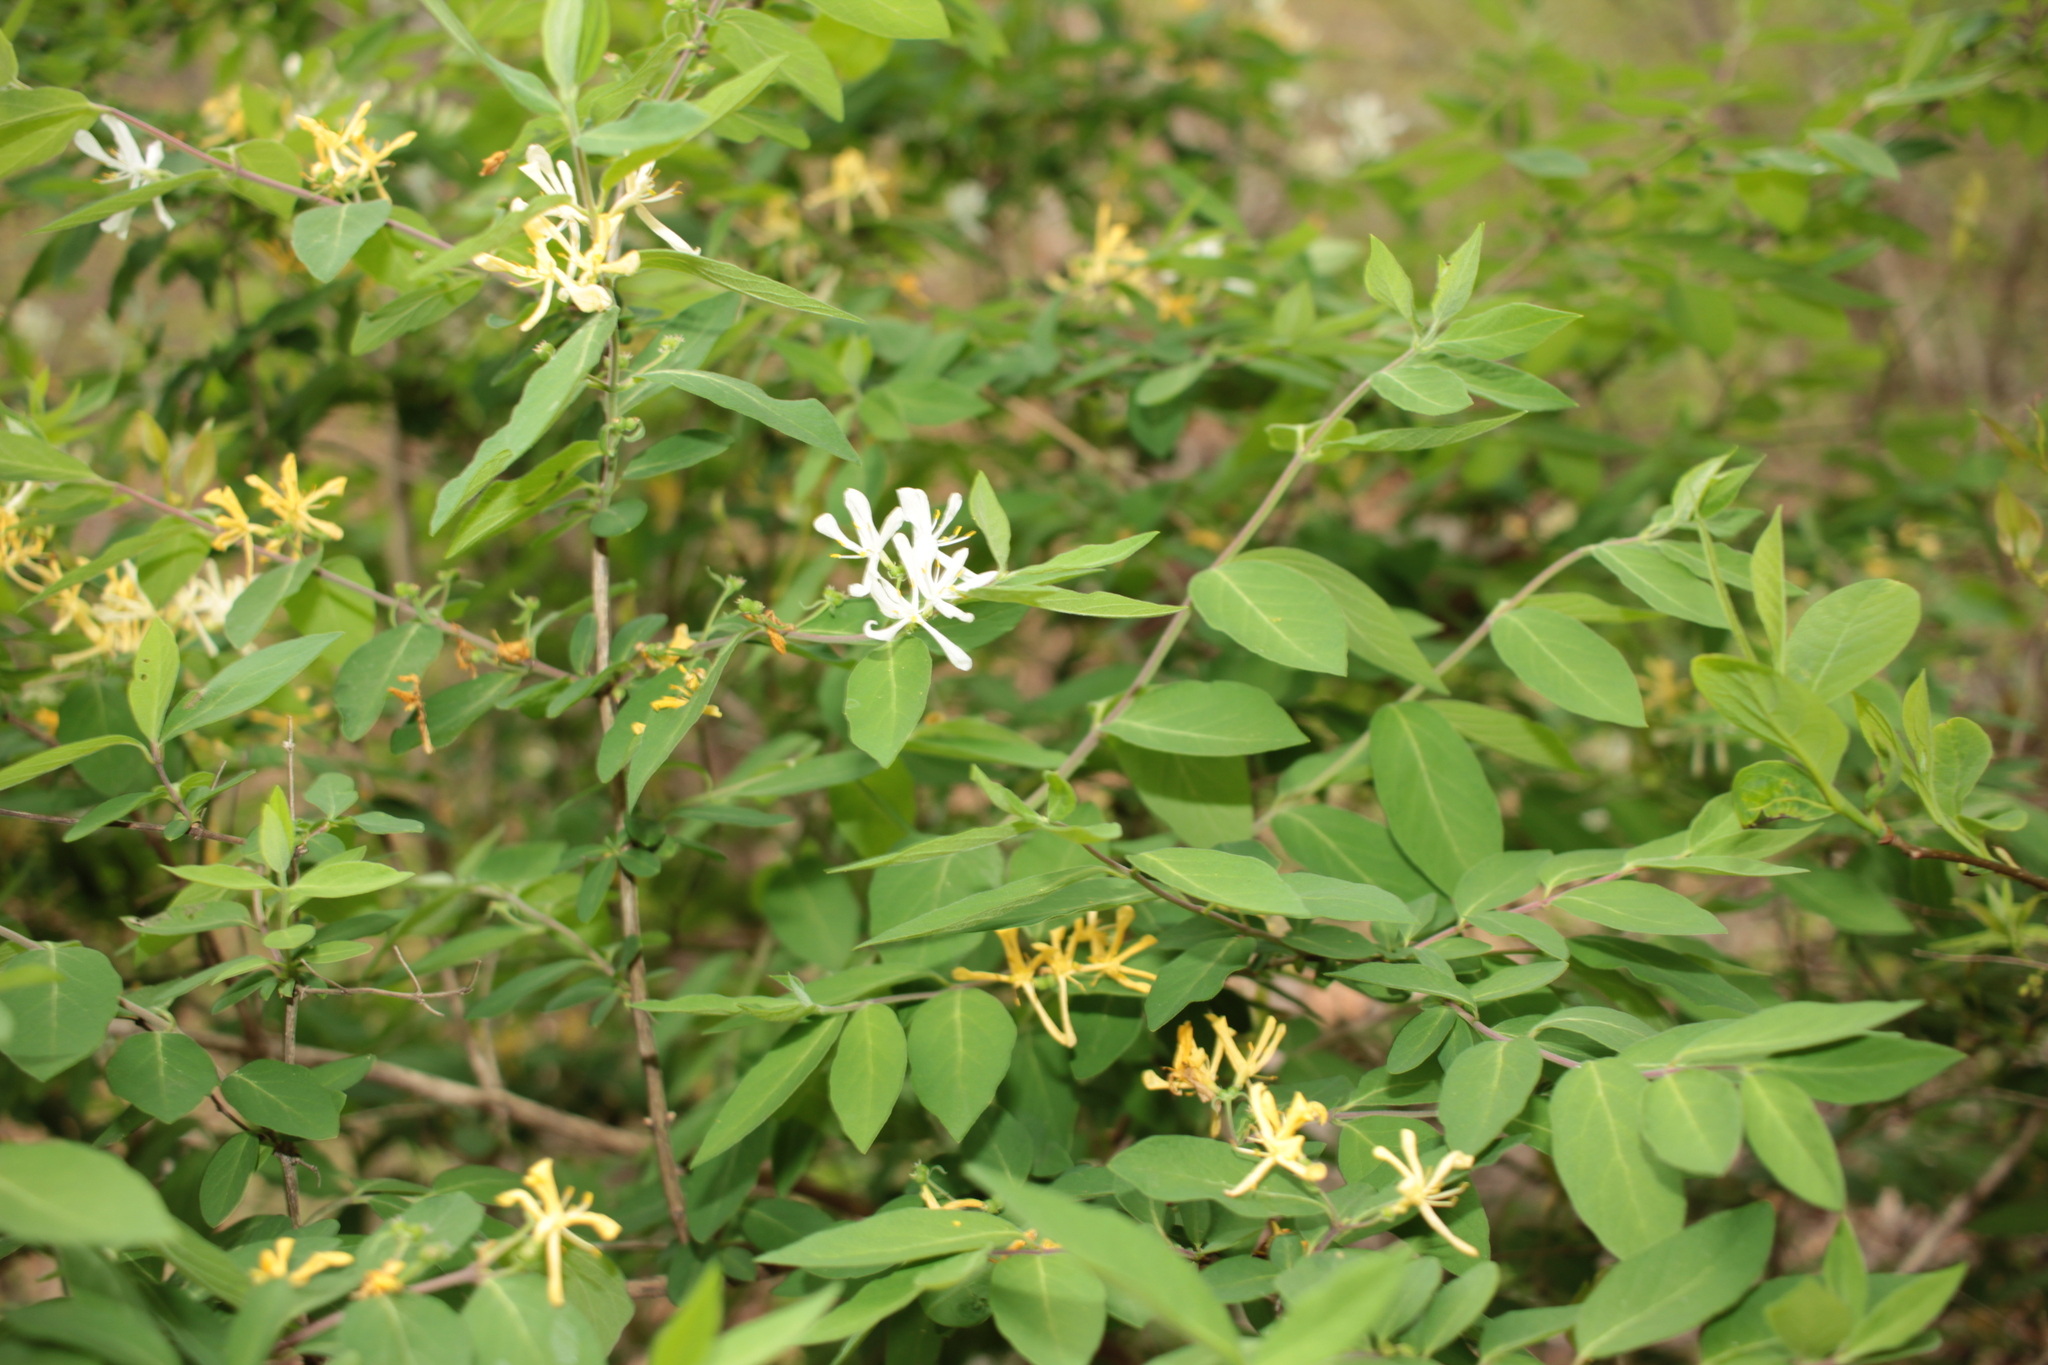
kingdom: Plantae
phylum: Tracheophyta
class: Magnoliopsida
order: Dipsacales
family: Caprifoliaceae
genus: Lonicera
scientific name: Lonicera morrowii
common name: Morrow's honeysuckle
